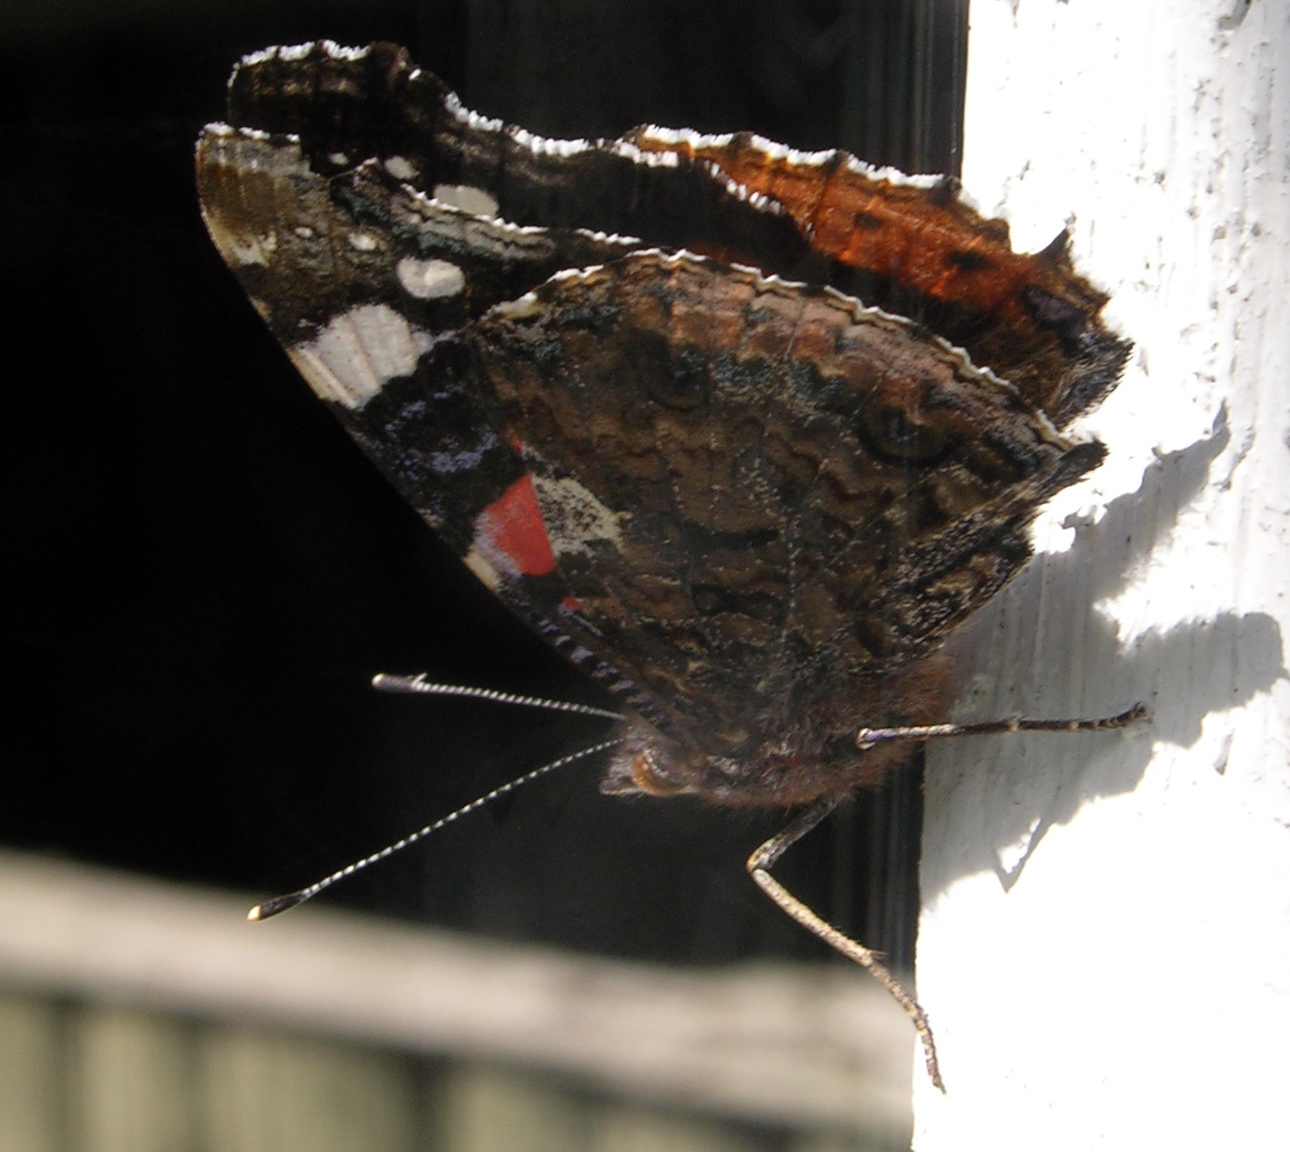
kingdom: Animalia
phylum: Arthropoda
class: Insecta
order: Lepidoptera
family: Nymphalidae
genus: Vanessa
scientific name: Vanessa atalanta
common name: Red admiral
